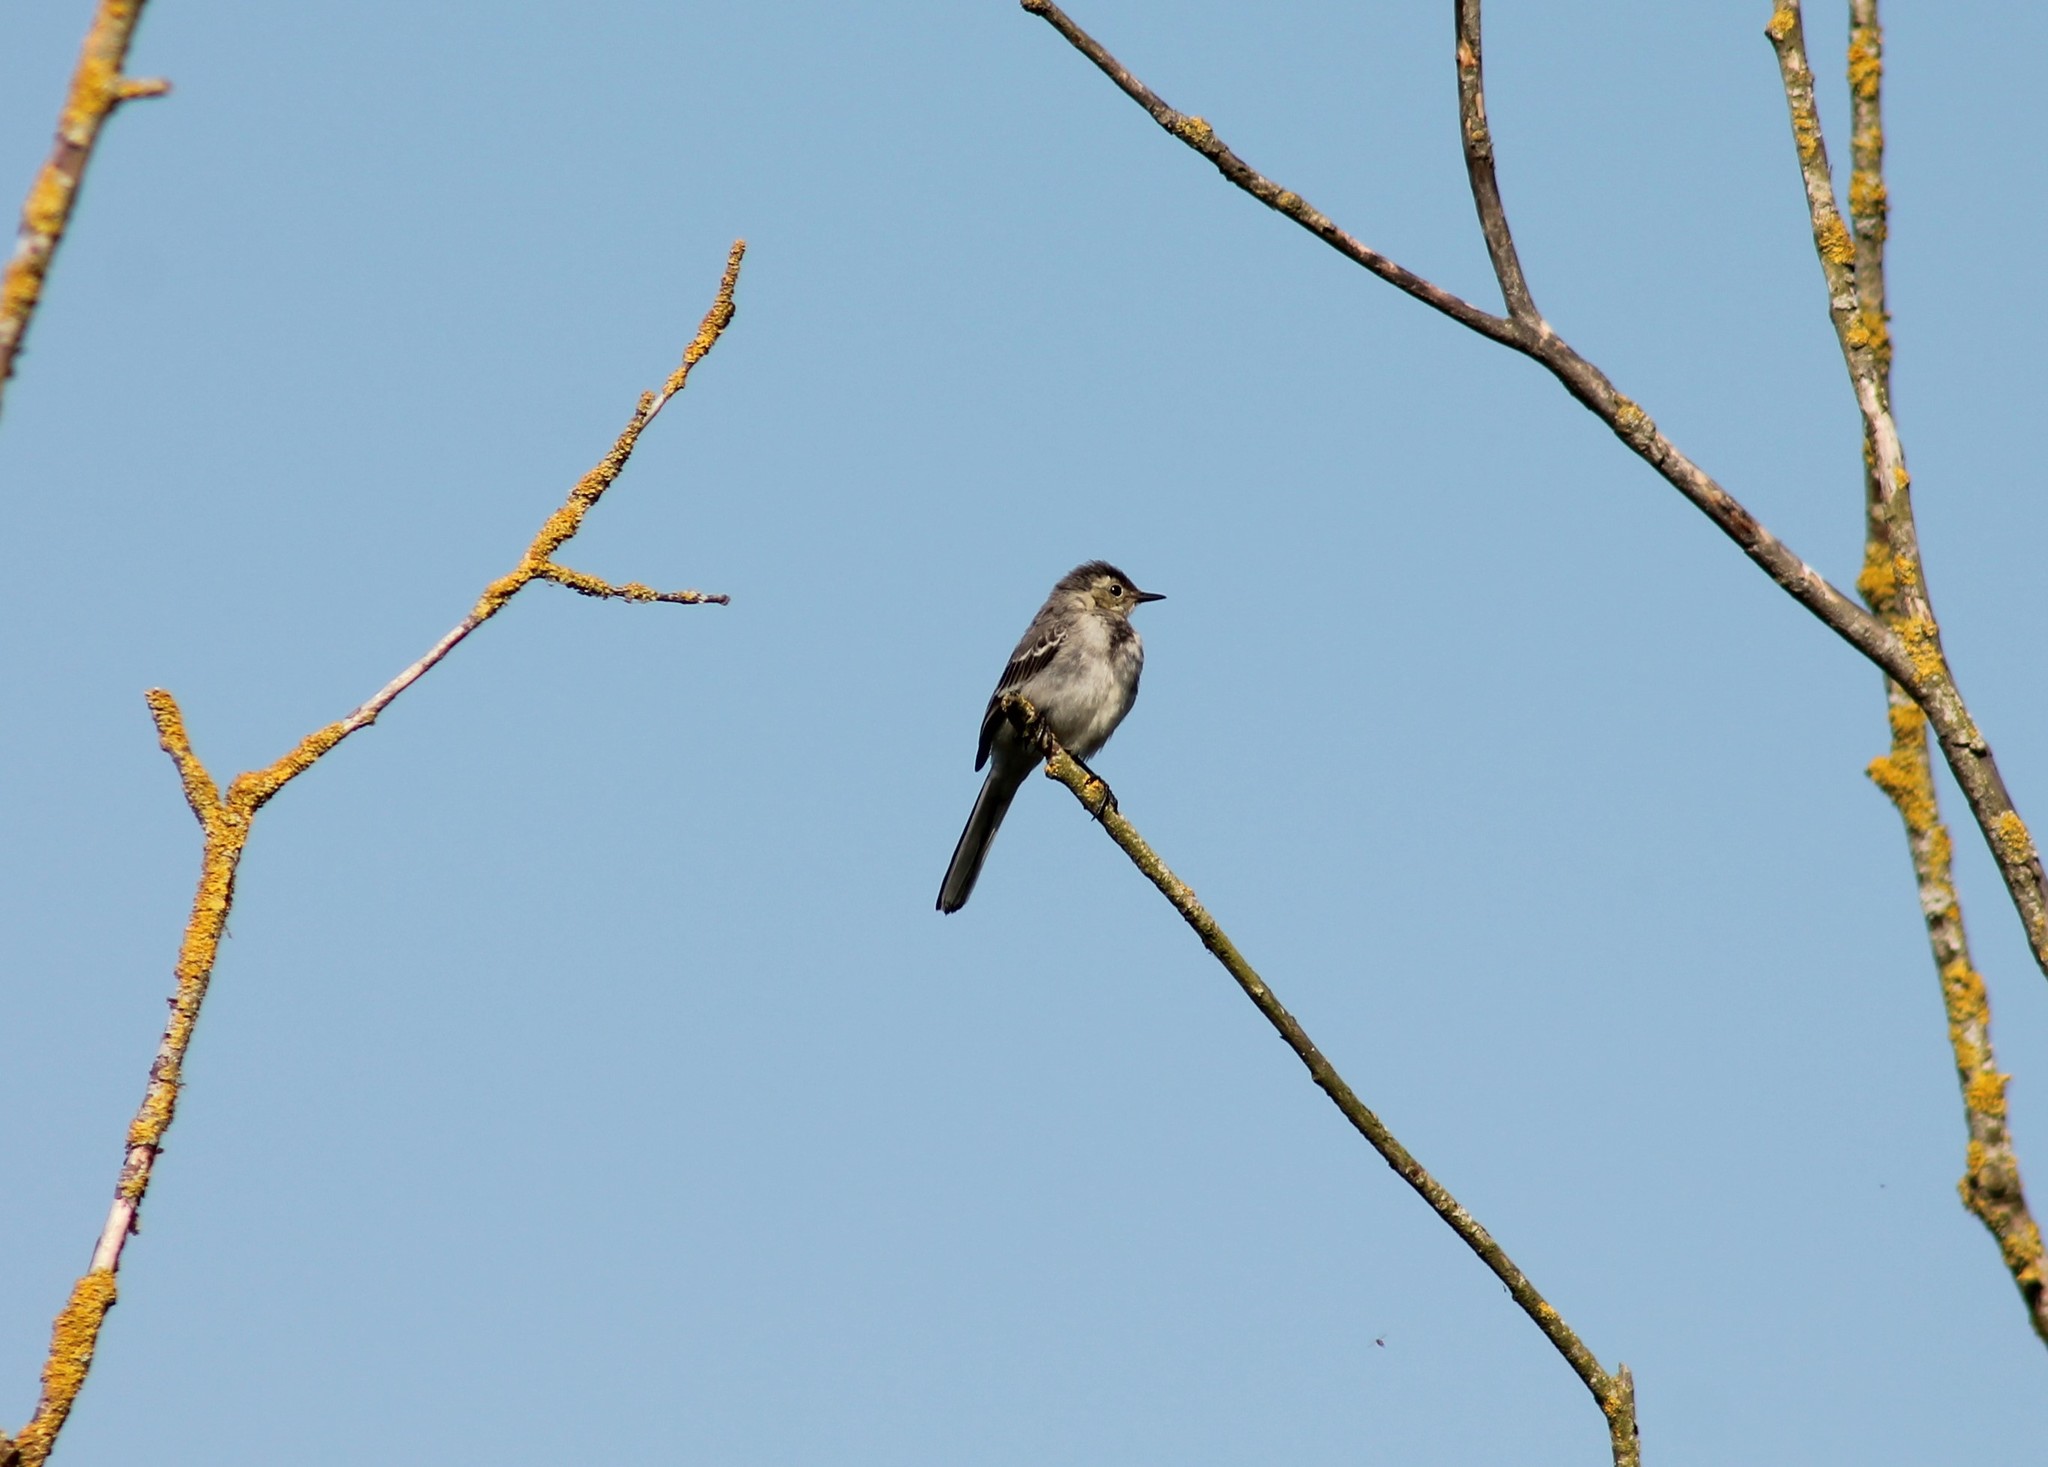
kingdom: Animalia
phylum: Chordata
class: Aves
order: Passeriformes
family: Motacillidae
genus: Motacilla
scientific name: Motacilla alba
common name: White wagtail
